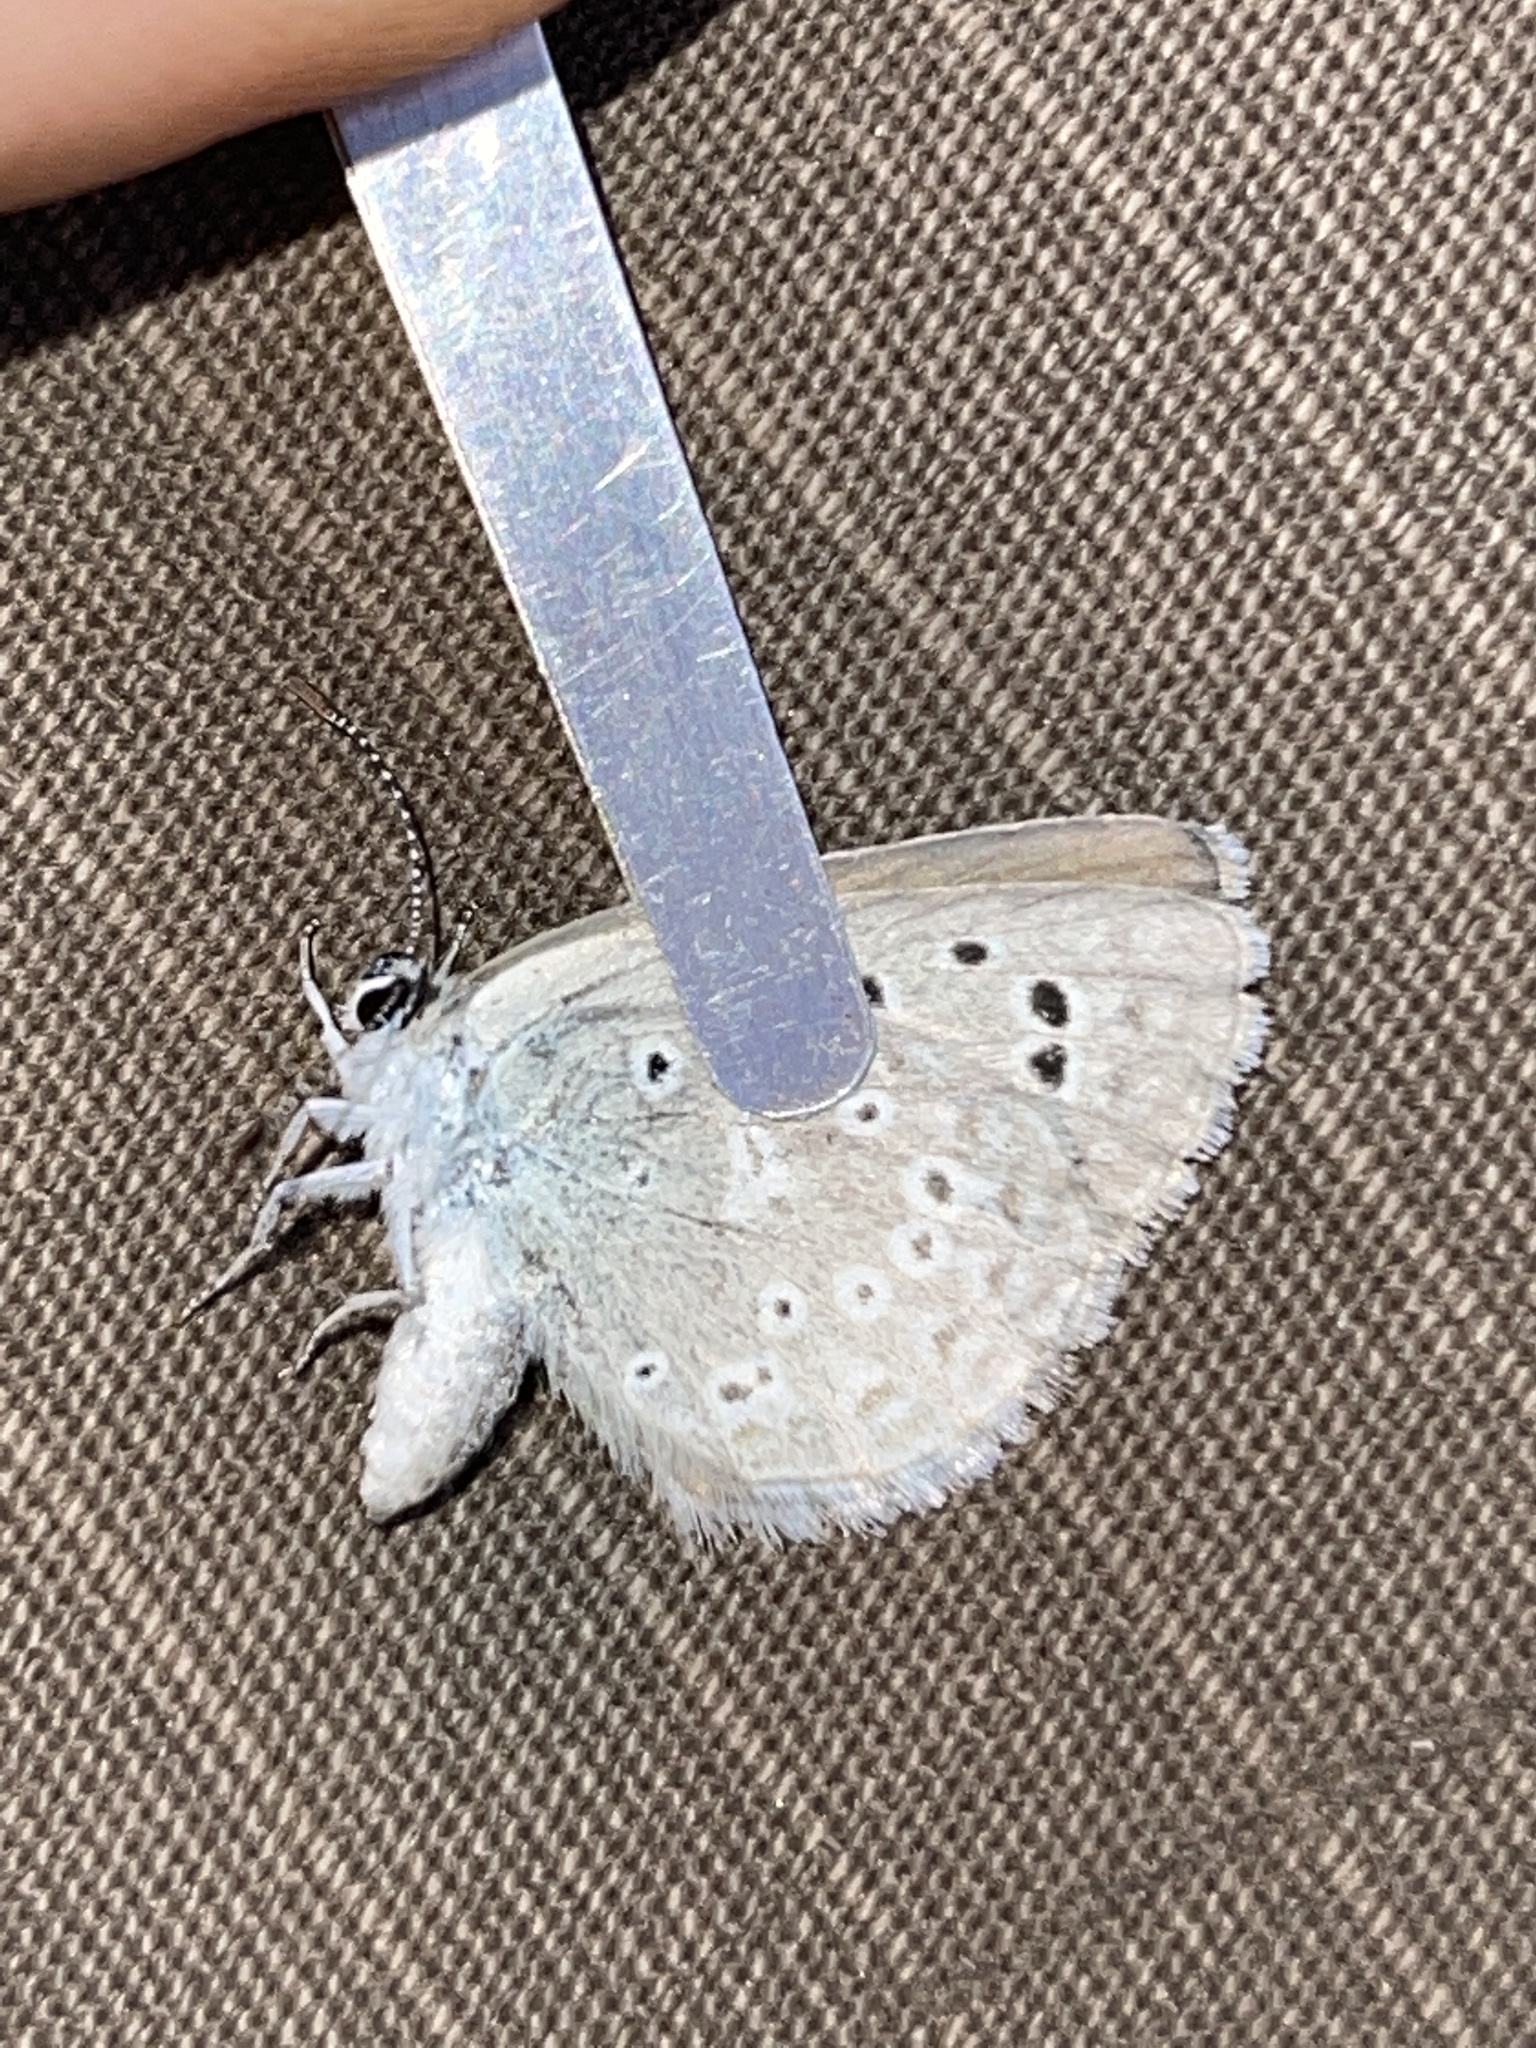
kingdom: Animalia
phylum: Arthropoda
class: Insecta
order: Lepidoptera
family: Lycaenidae
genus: Icaricia
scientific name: Icaricia icarioides
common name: Boisduval's blue
